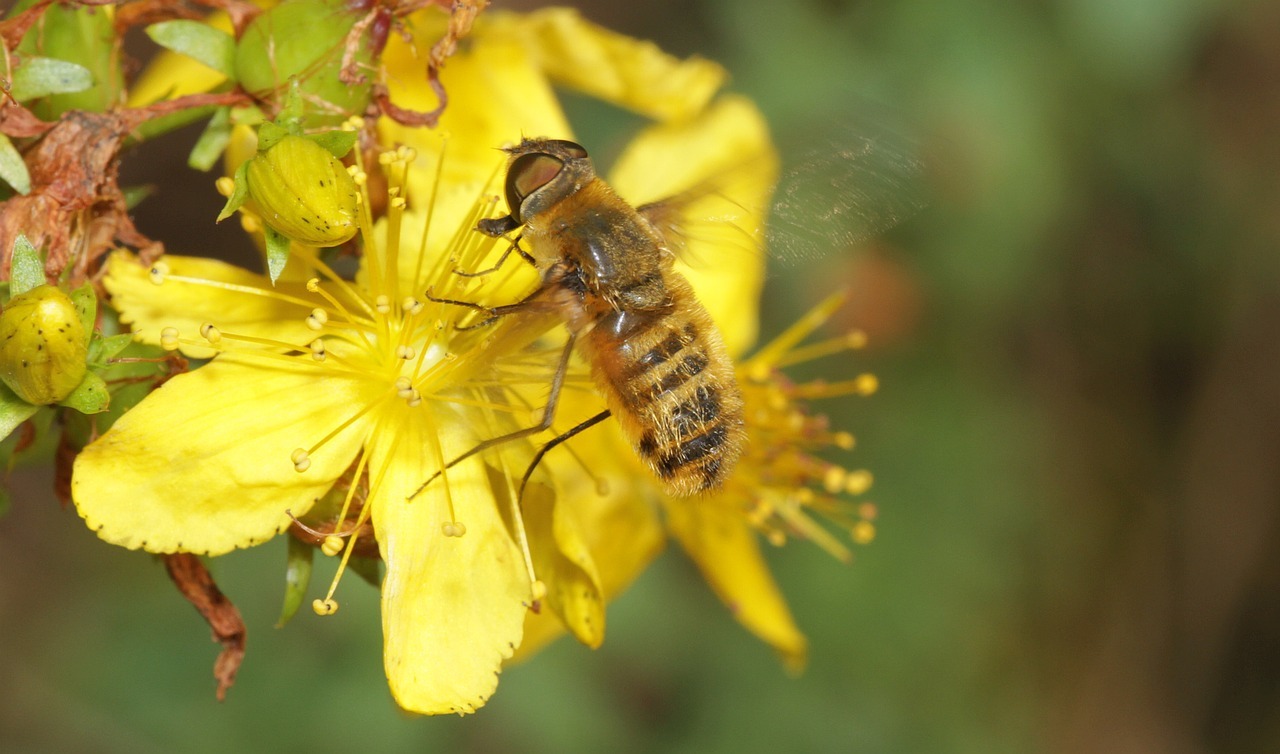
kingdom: Animalia
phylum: Arthropoda
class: Insecta
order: Diptera
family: Bombyliidae
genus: Villa
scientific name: Villa hottentotta
